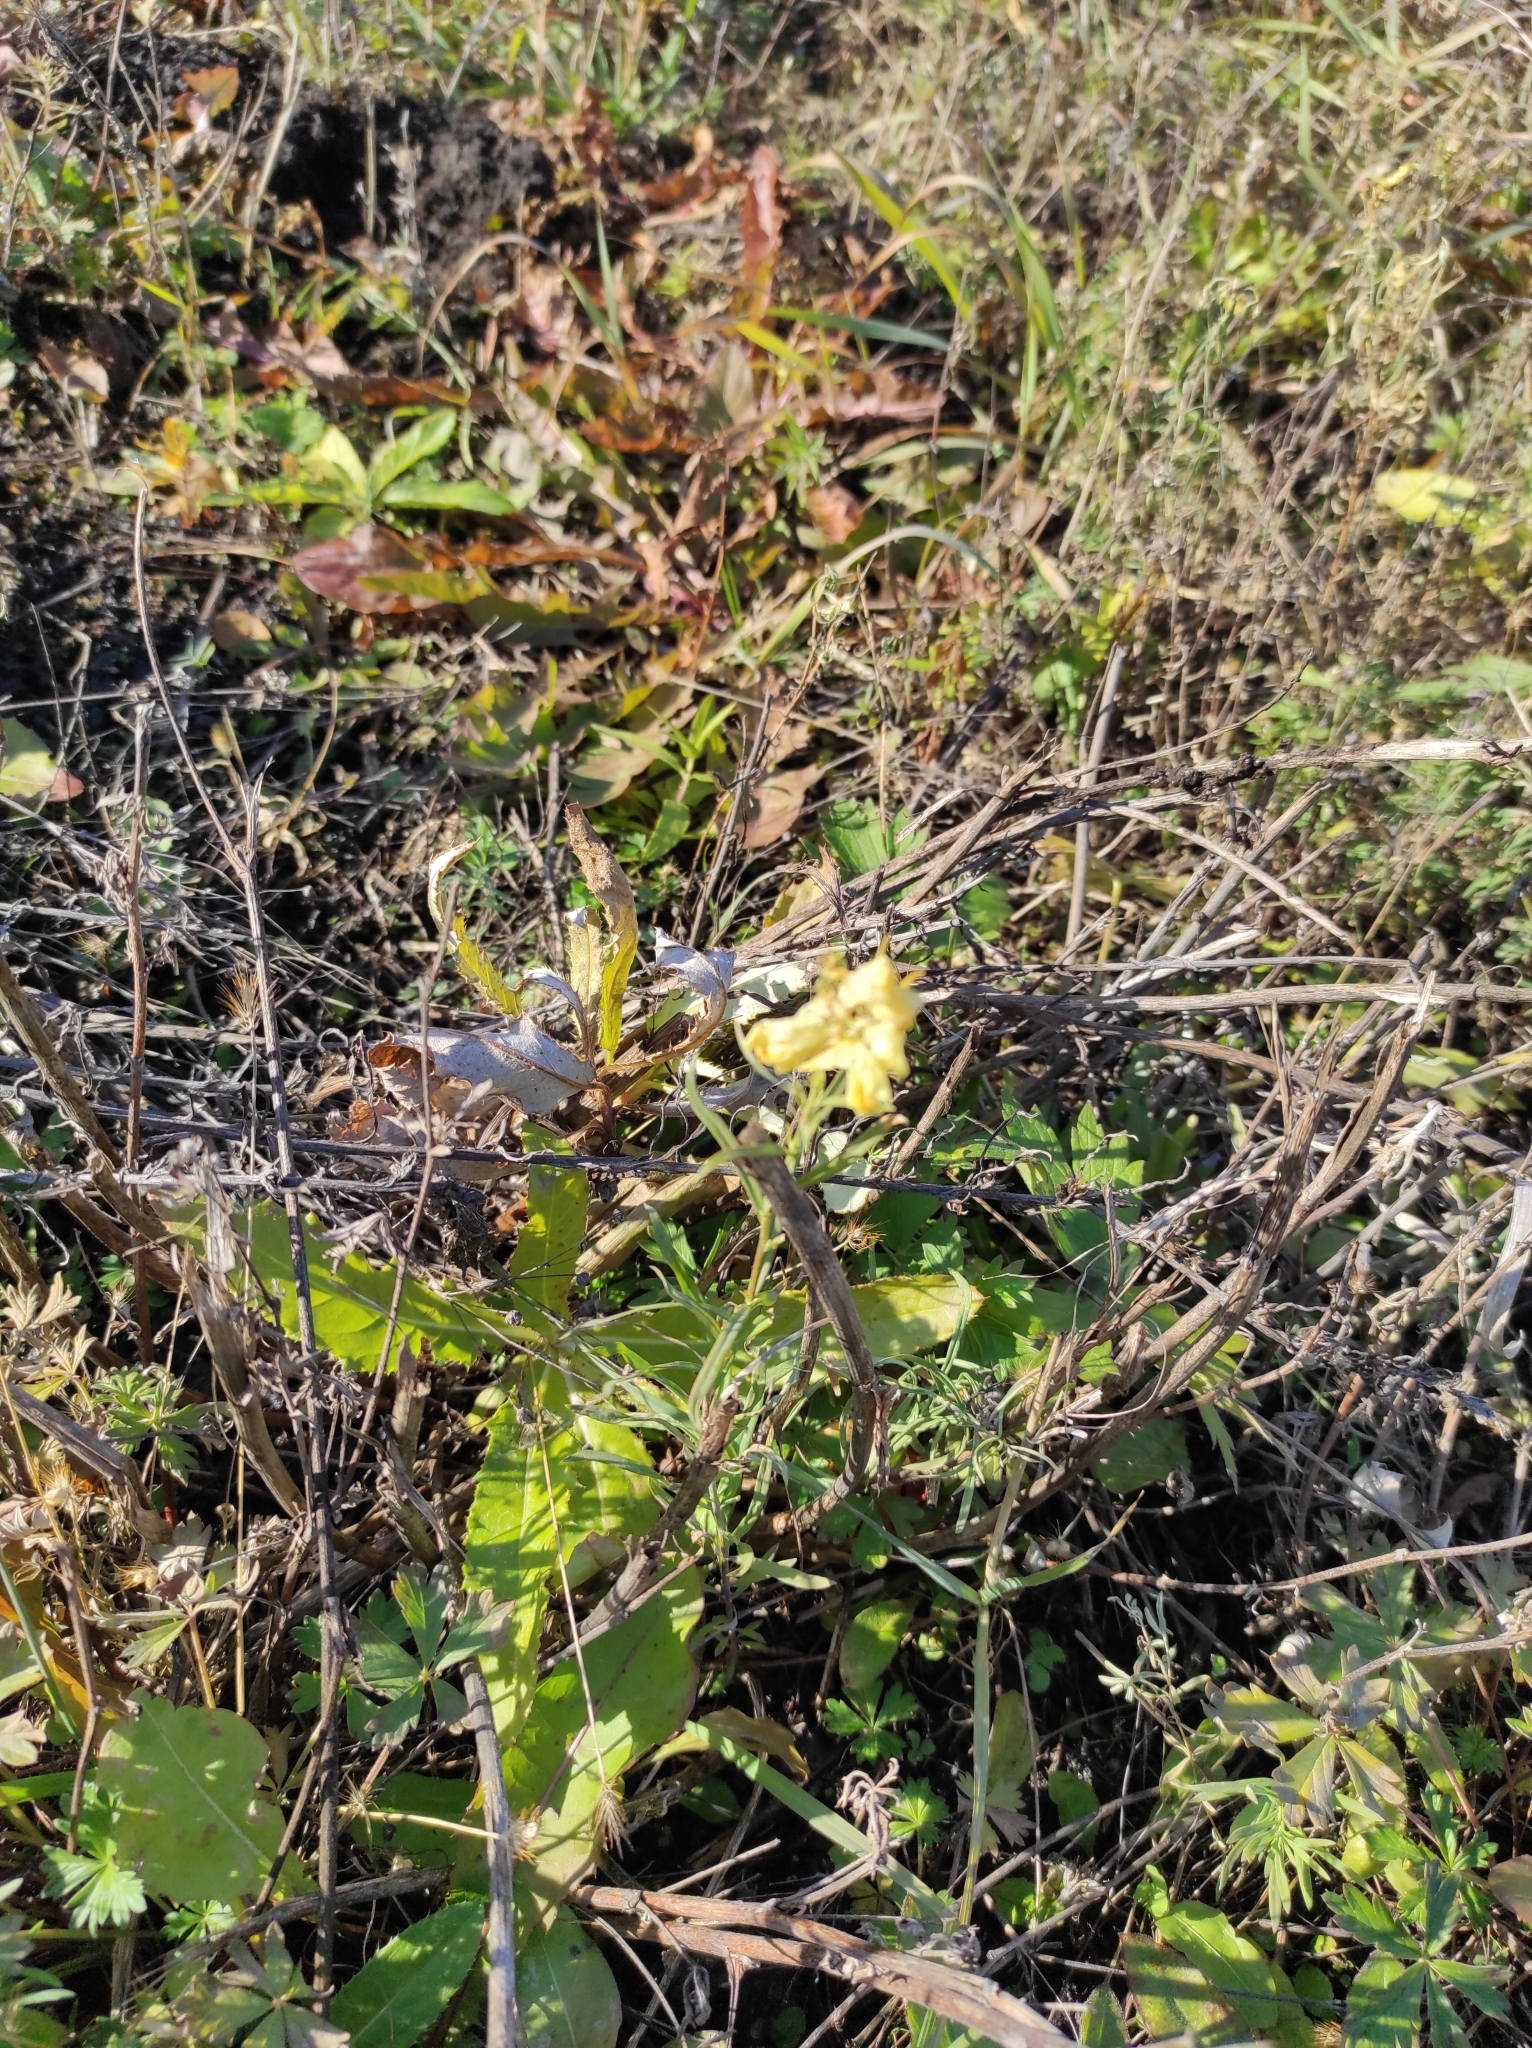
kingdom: Plantae
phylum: Tracheophyta
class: Magnoliopsida
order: Lamiales
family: Plantaginaceae
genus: Linaria
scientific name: Linaria vulgaris
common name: Butter and eggs
